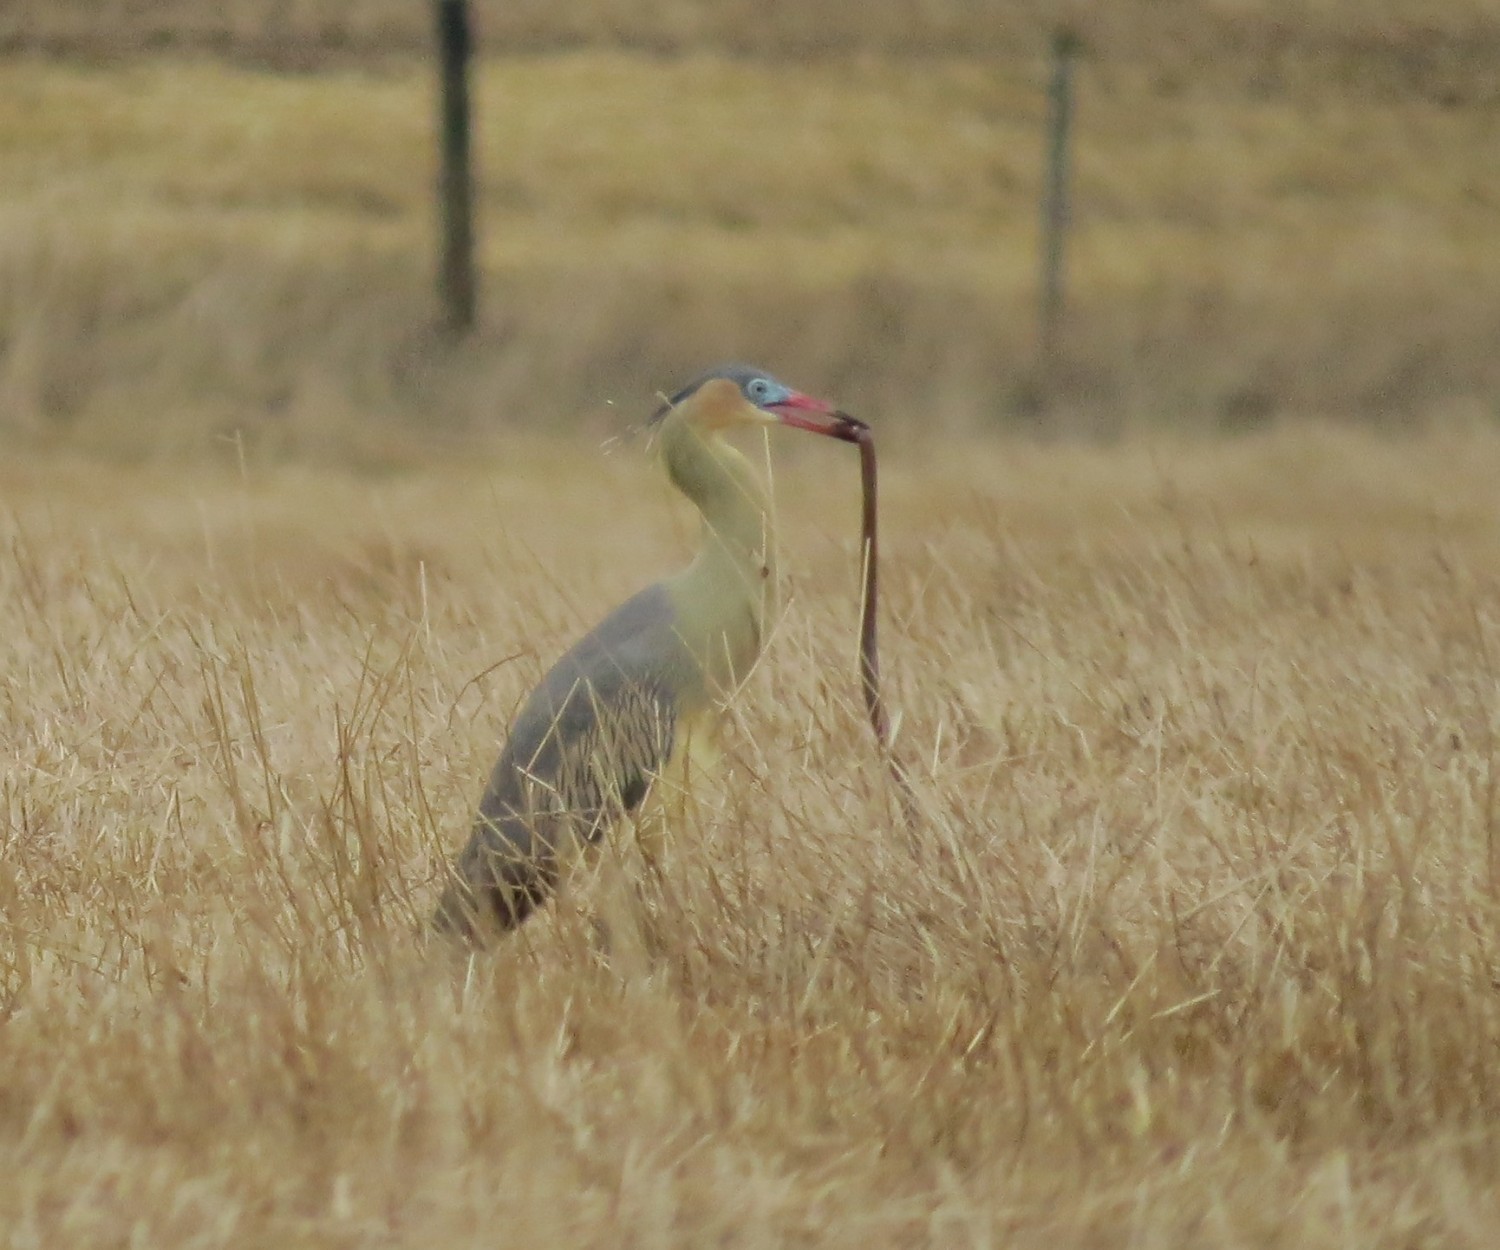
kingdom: Animalia
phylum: Chordata
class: Aves
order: Pelecaniformes
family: Ardeidae
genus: Syrigma
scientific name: Syrigma sibilatrix
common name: Whistling heron
